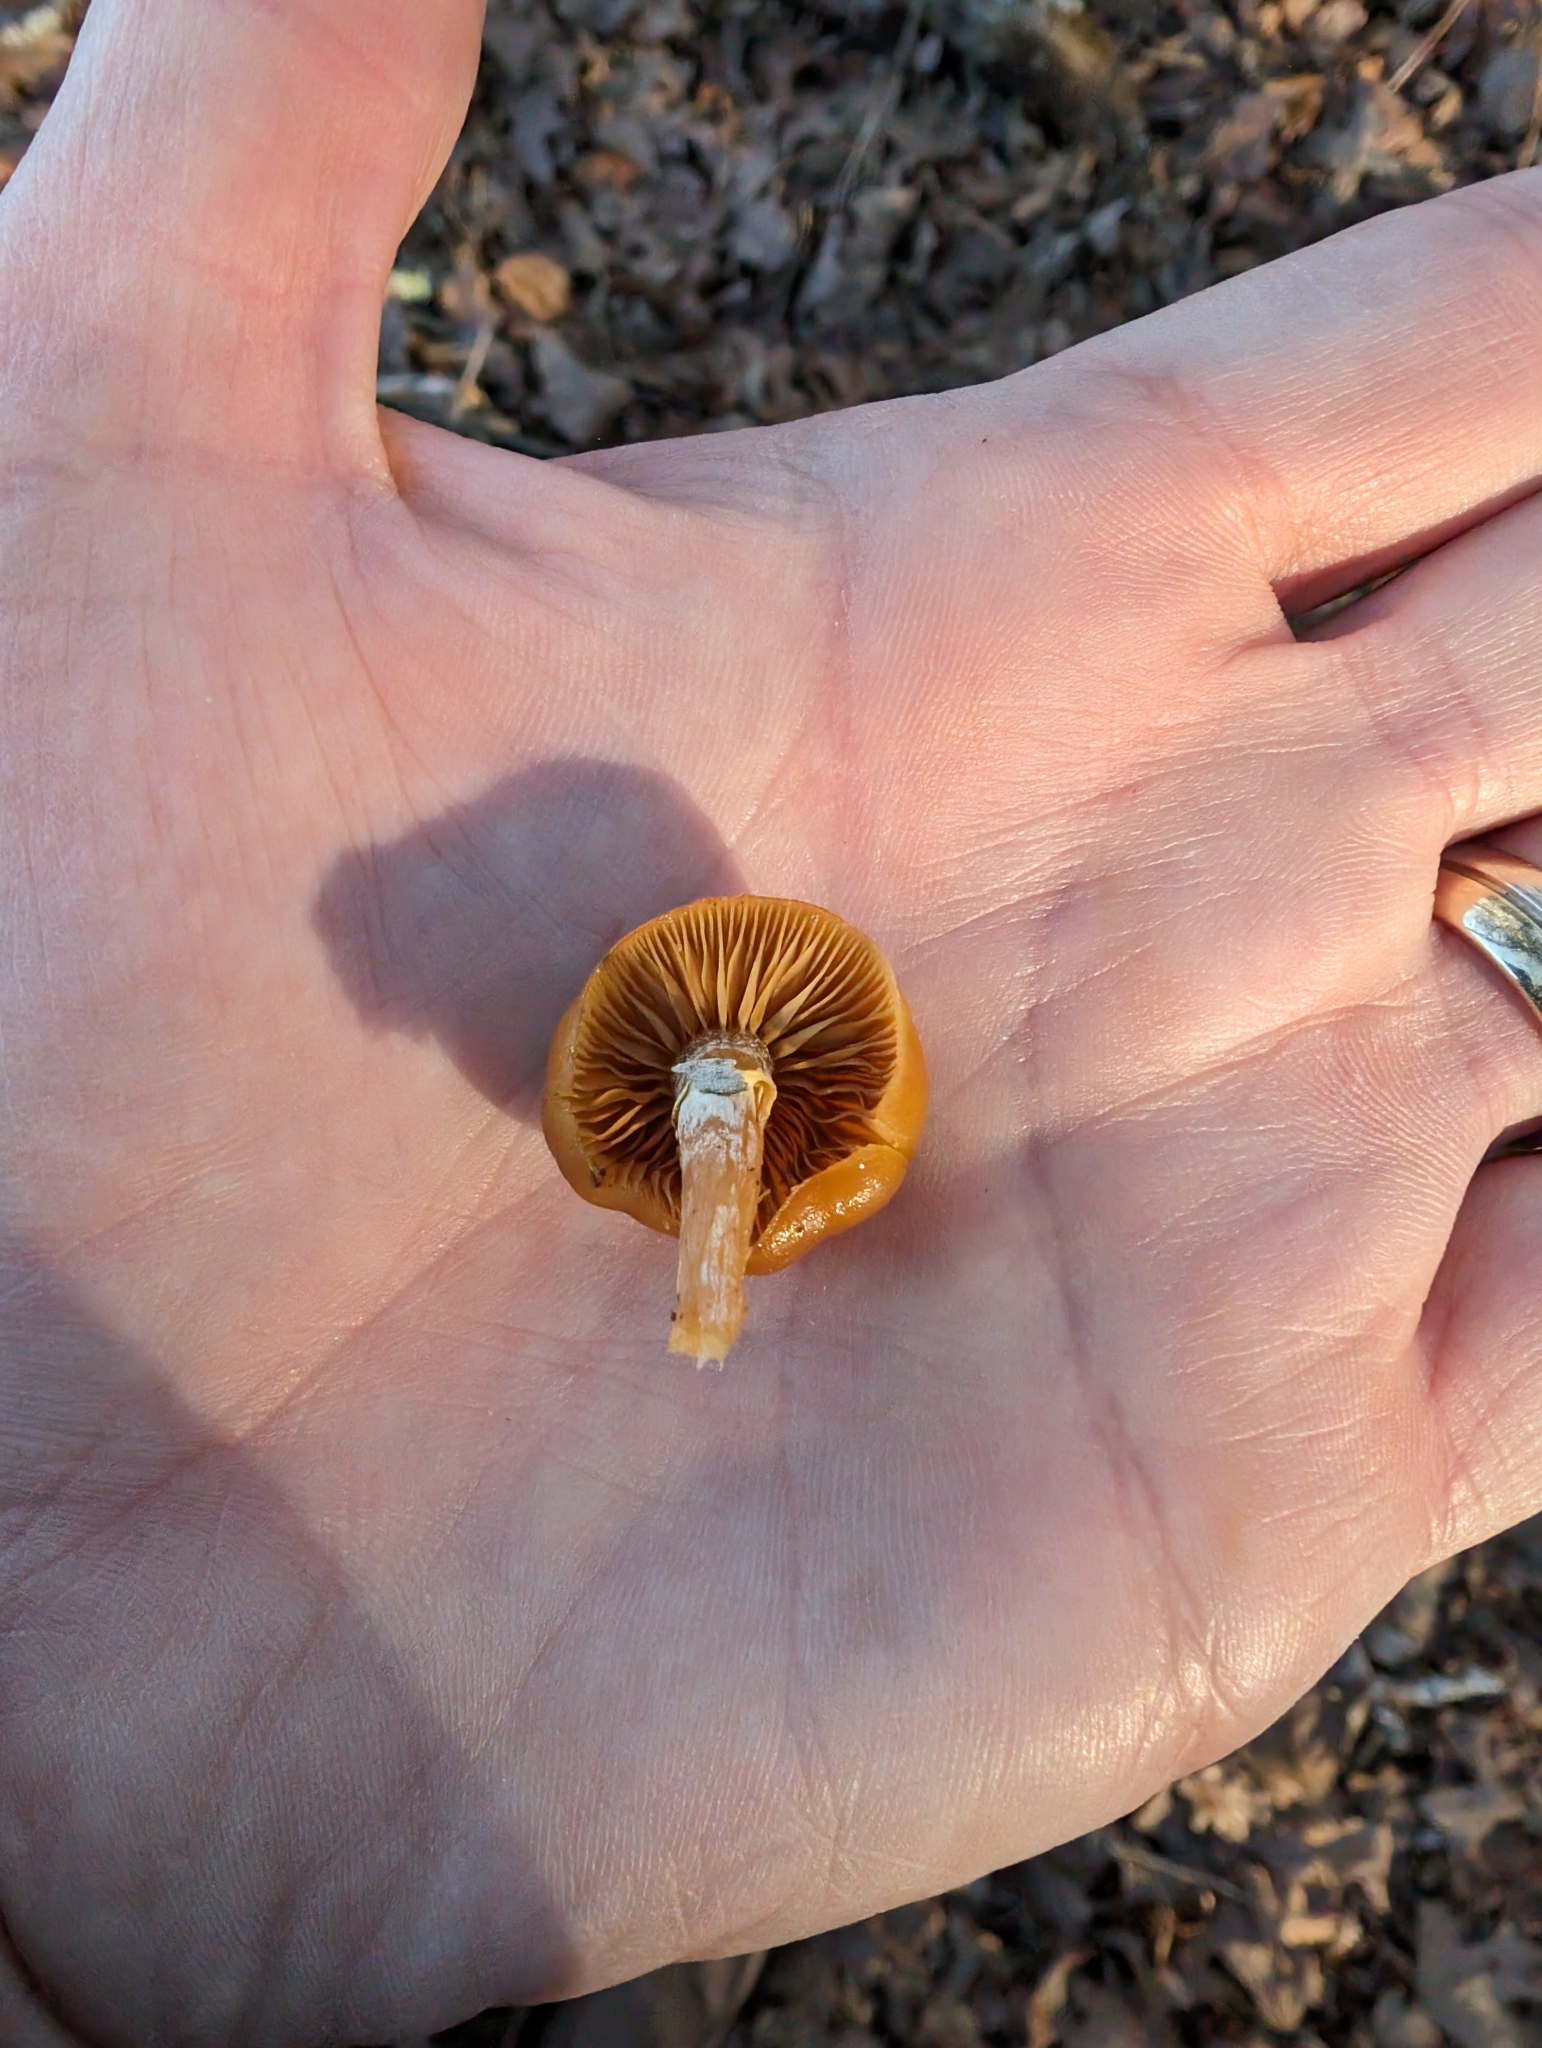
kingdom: Fungi
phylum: Basidiomycota
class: Agaricomycetes
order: Agaricales
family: Hymenogastraceae
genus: Galerina
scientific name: Galerina marginata
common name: Funeral bell
